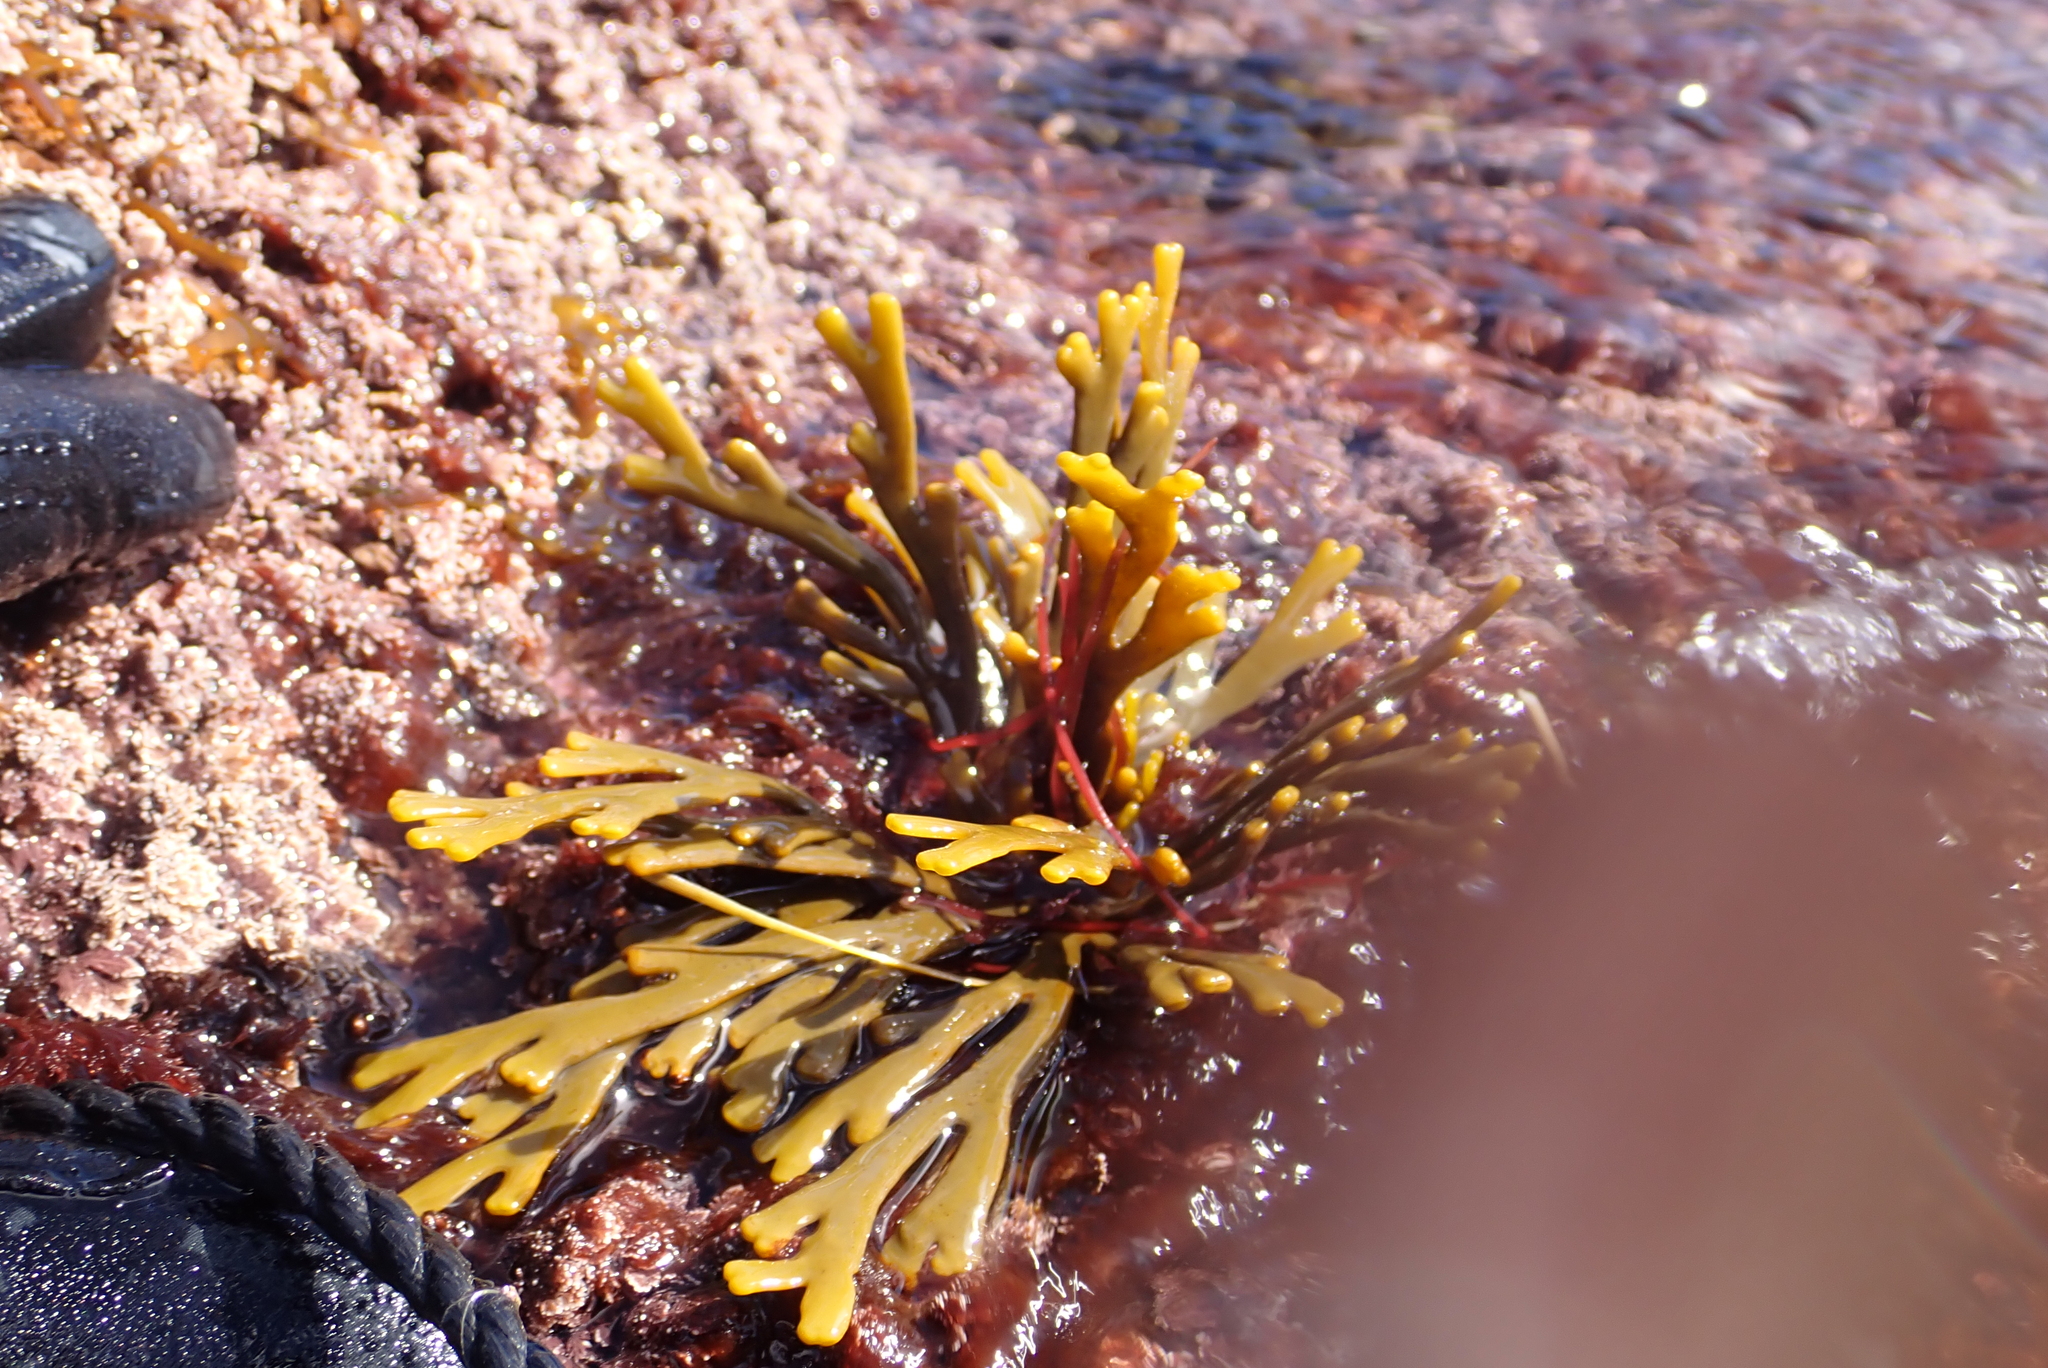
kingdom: Chromista
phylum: Ochrophyta
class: Phaeophyceae
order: Fucales
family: Xiphophoraceae
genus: Xiphophora
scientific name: Xiphophora gladiata
